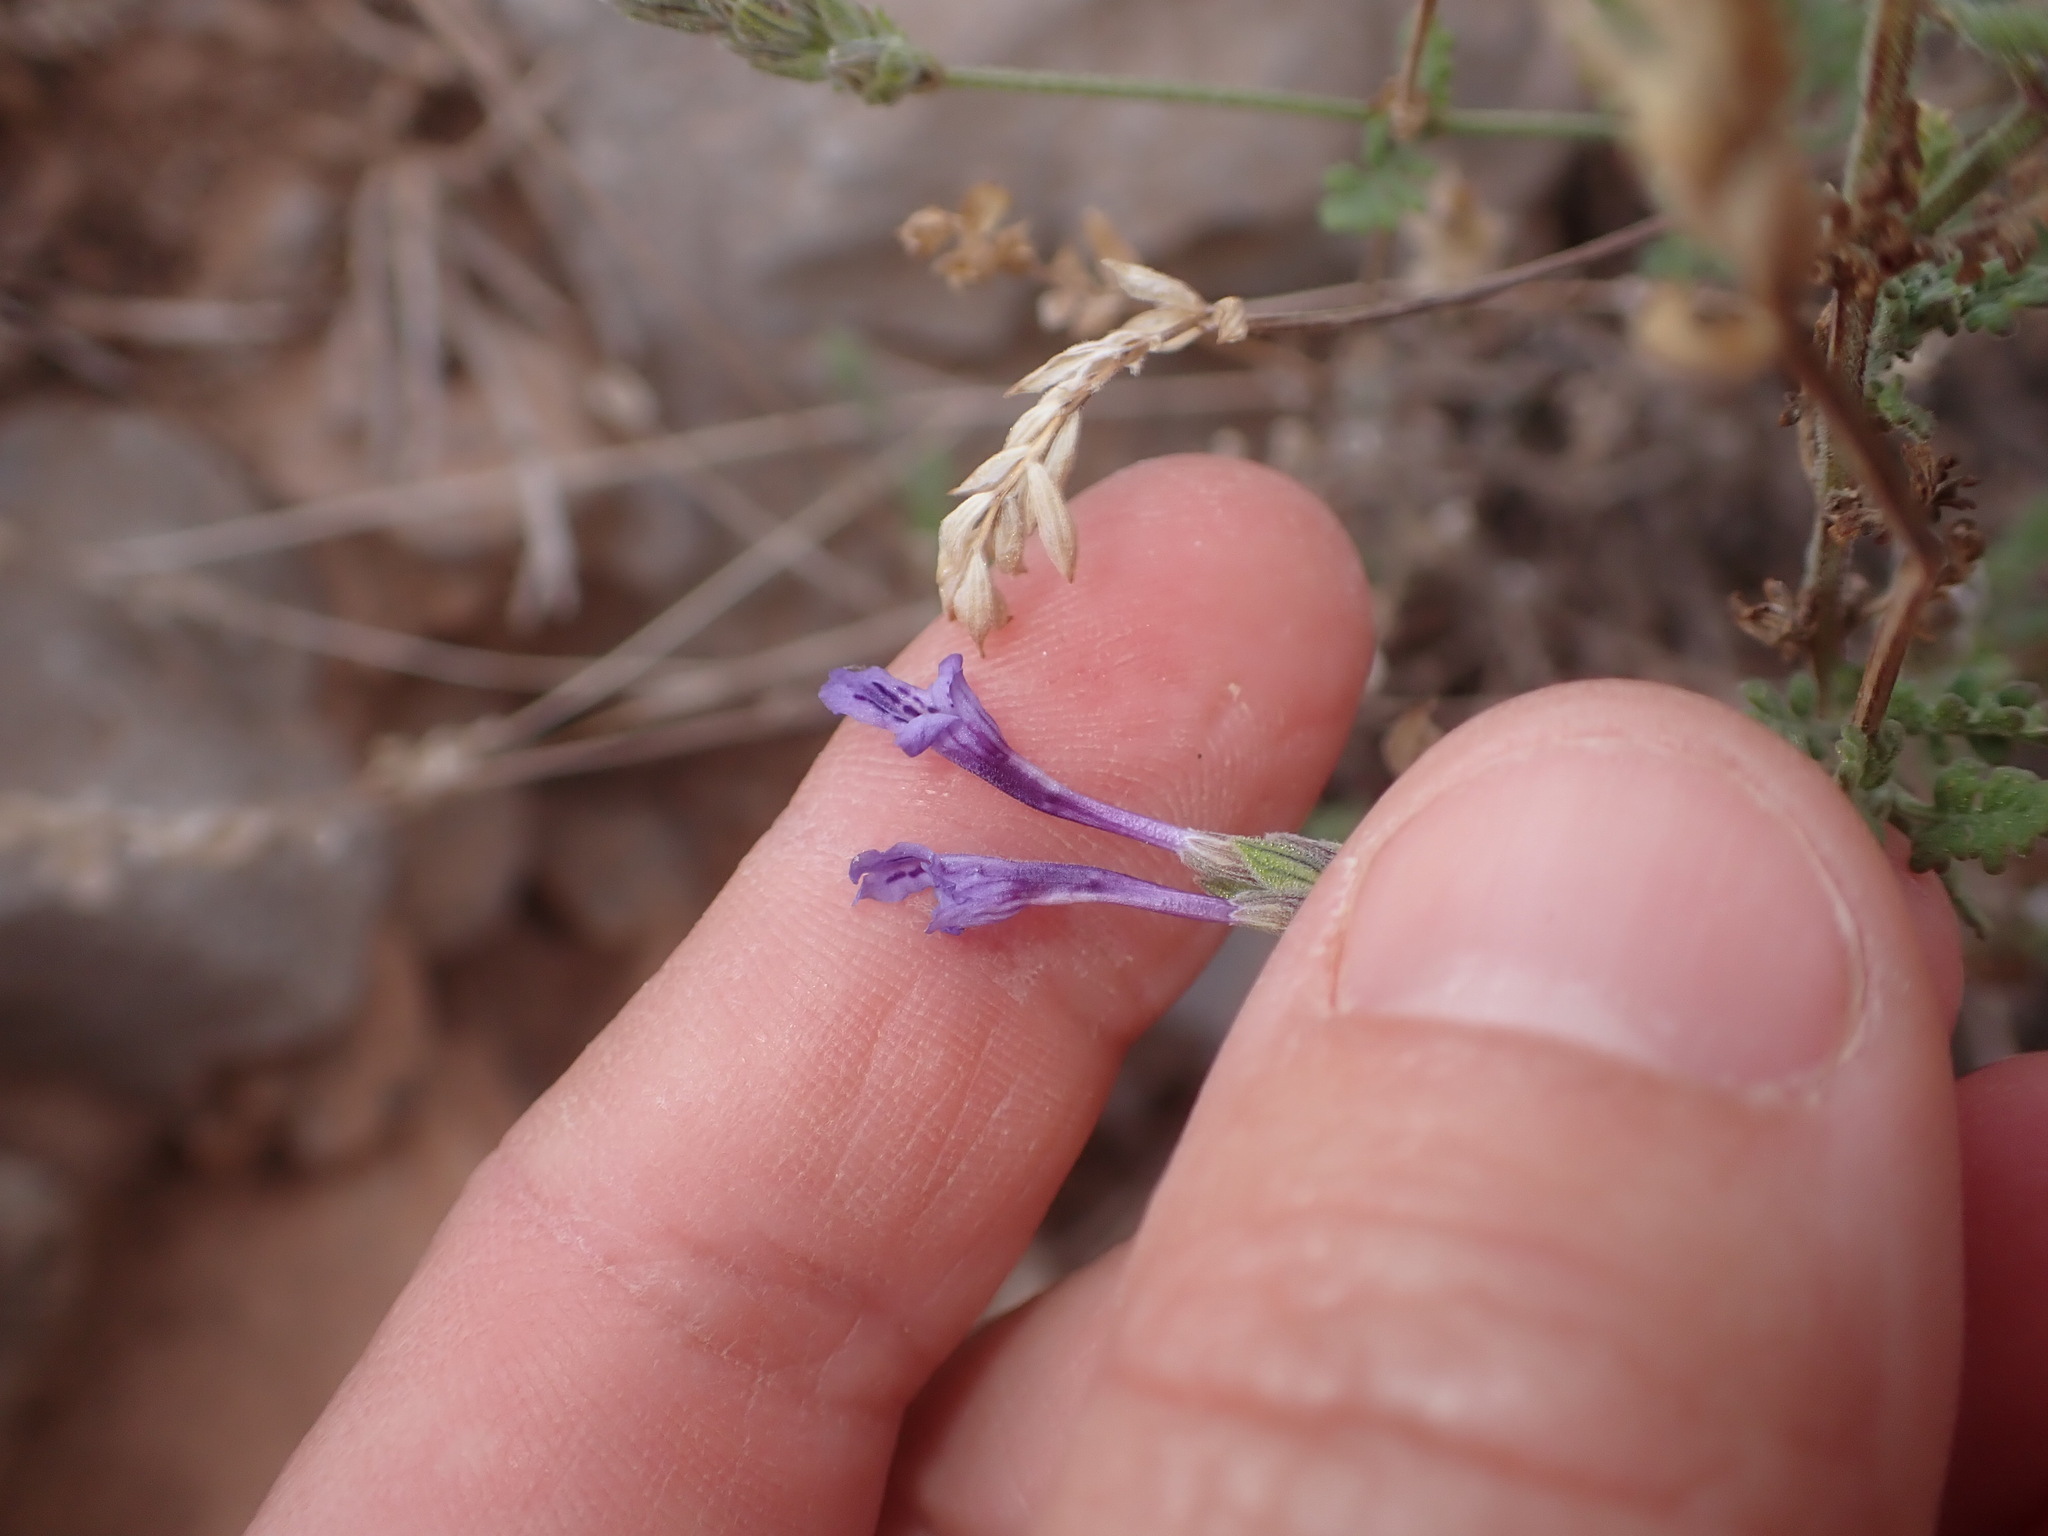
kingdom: Plantae
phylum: Tracheophyta
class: Magnoliopsida
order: Lamiales
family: Lamiaceae
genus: Lavandula
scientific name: Lavandula mairei
